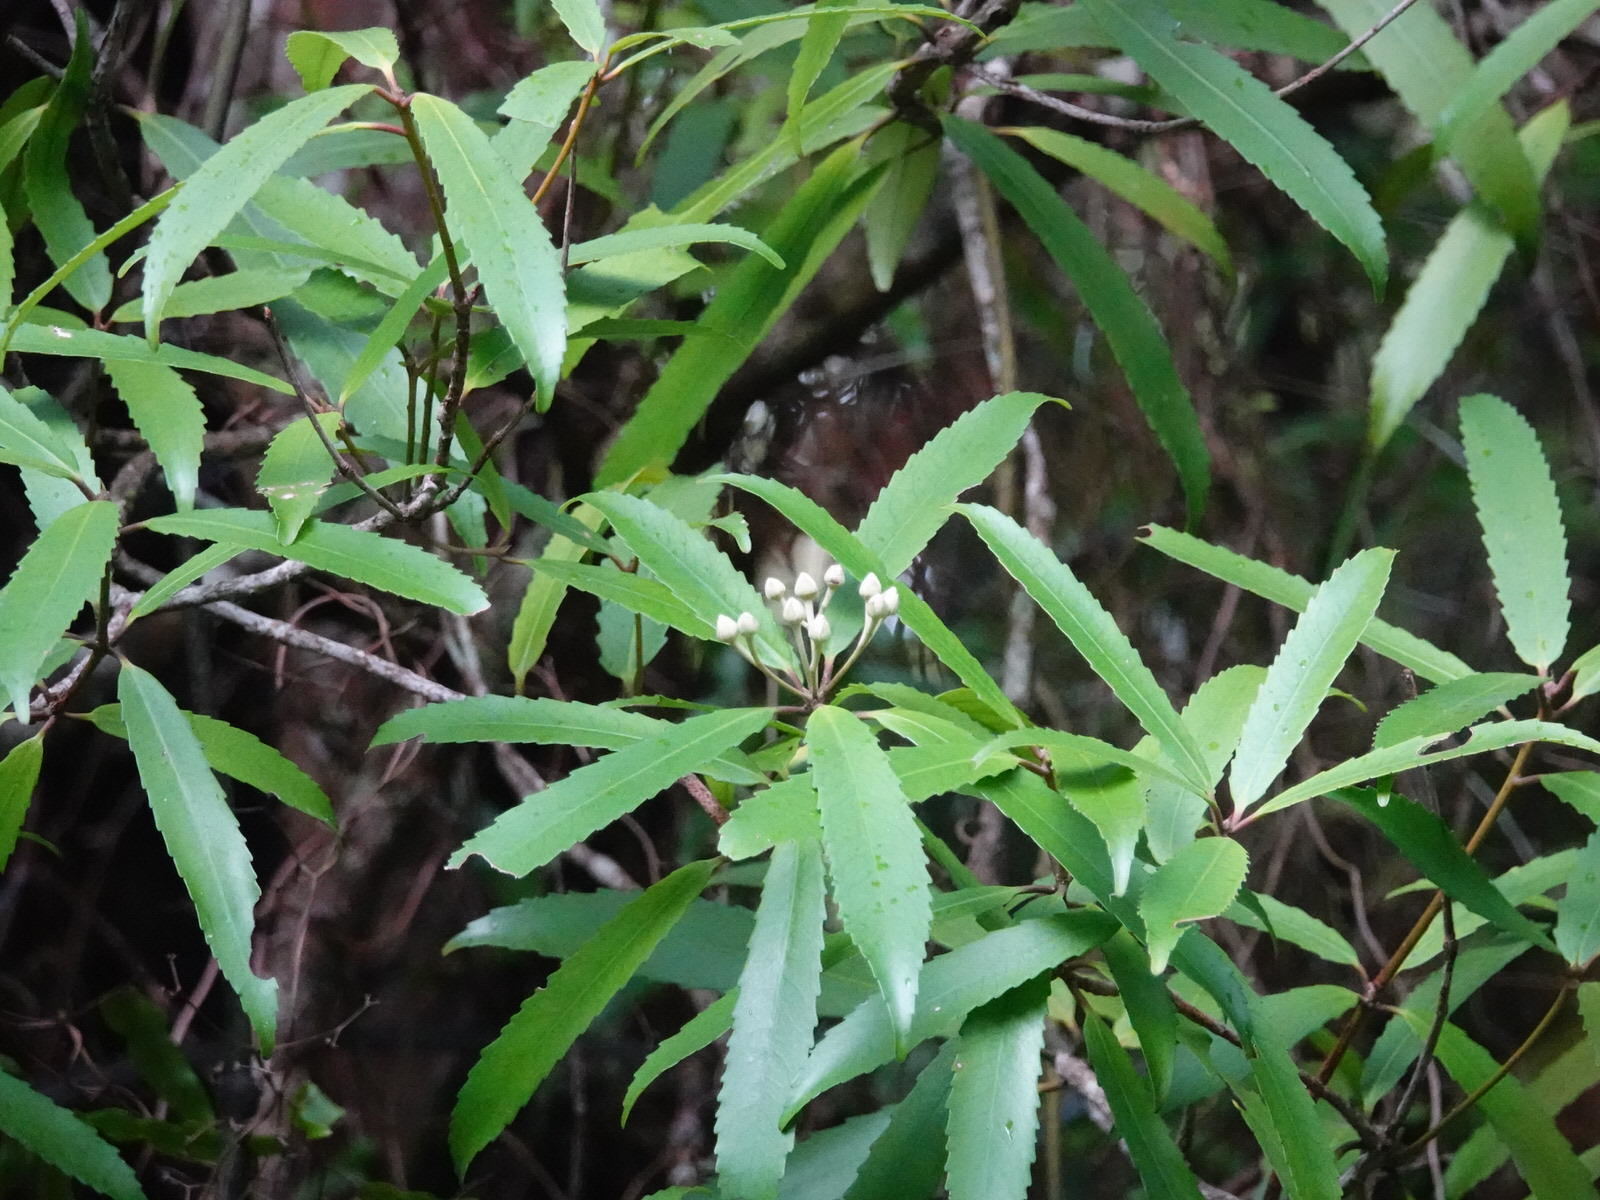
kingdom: Plantae
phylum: Tracheophyta
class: Magnoliopsida
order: Crossosomatales
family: Ixerbaceae
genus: Ixerba
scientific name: Ixerba brexioides
